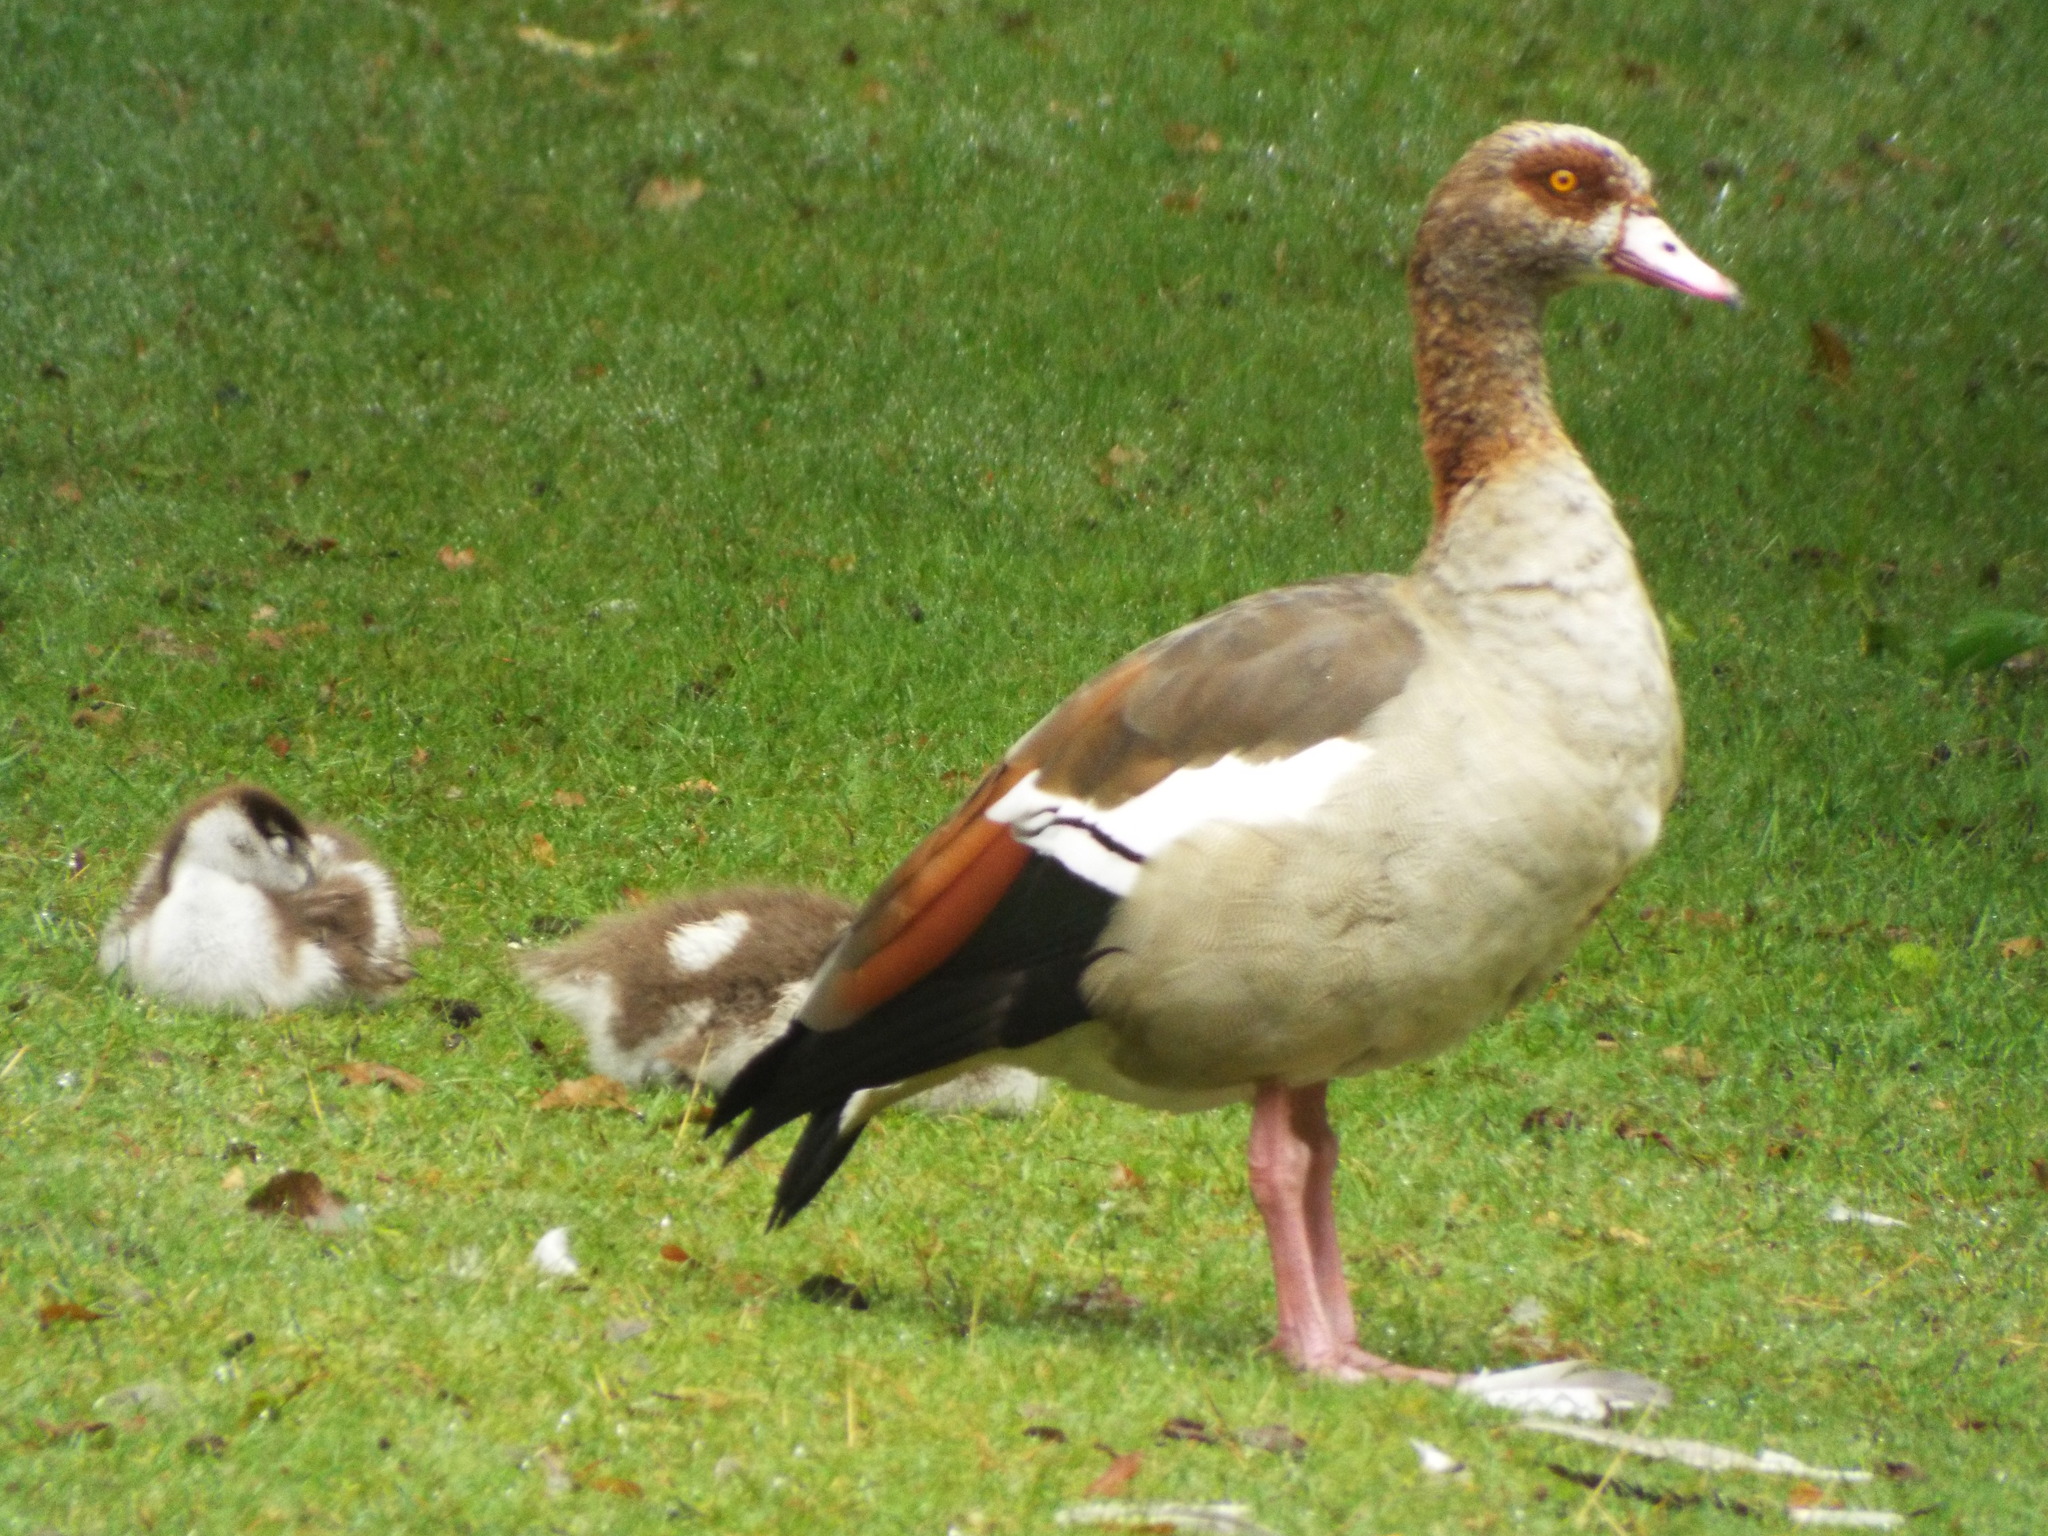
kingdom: Animalia
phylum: Chordata
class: Aves
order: Anseriformes
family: Anatidae
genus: Alopochen
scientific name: Alopochen aegyptiaca
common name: Egyptian goose
